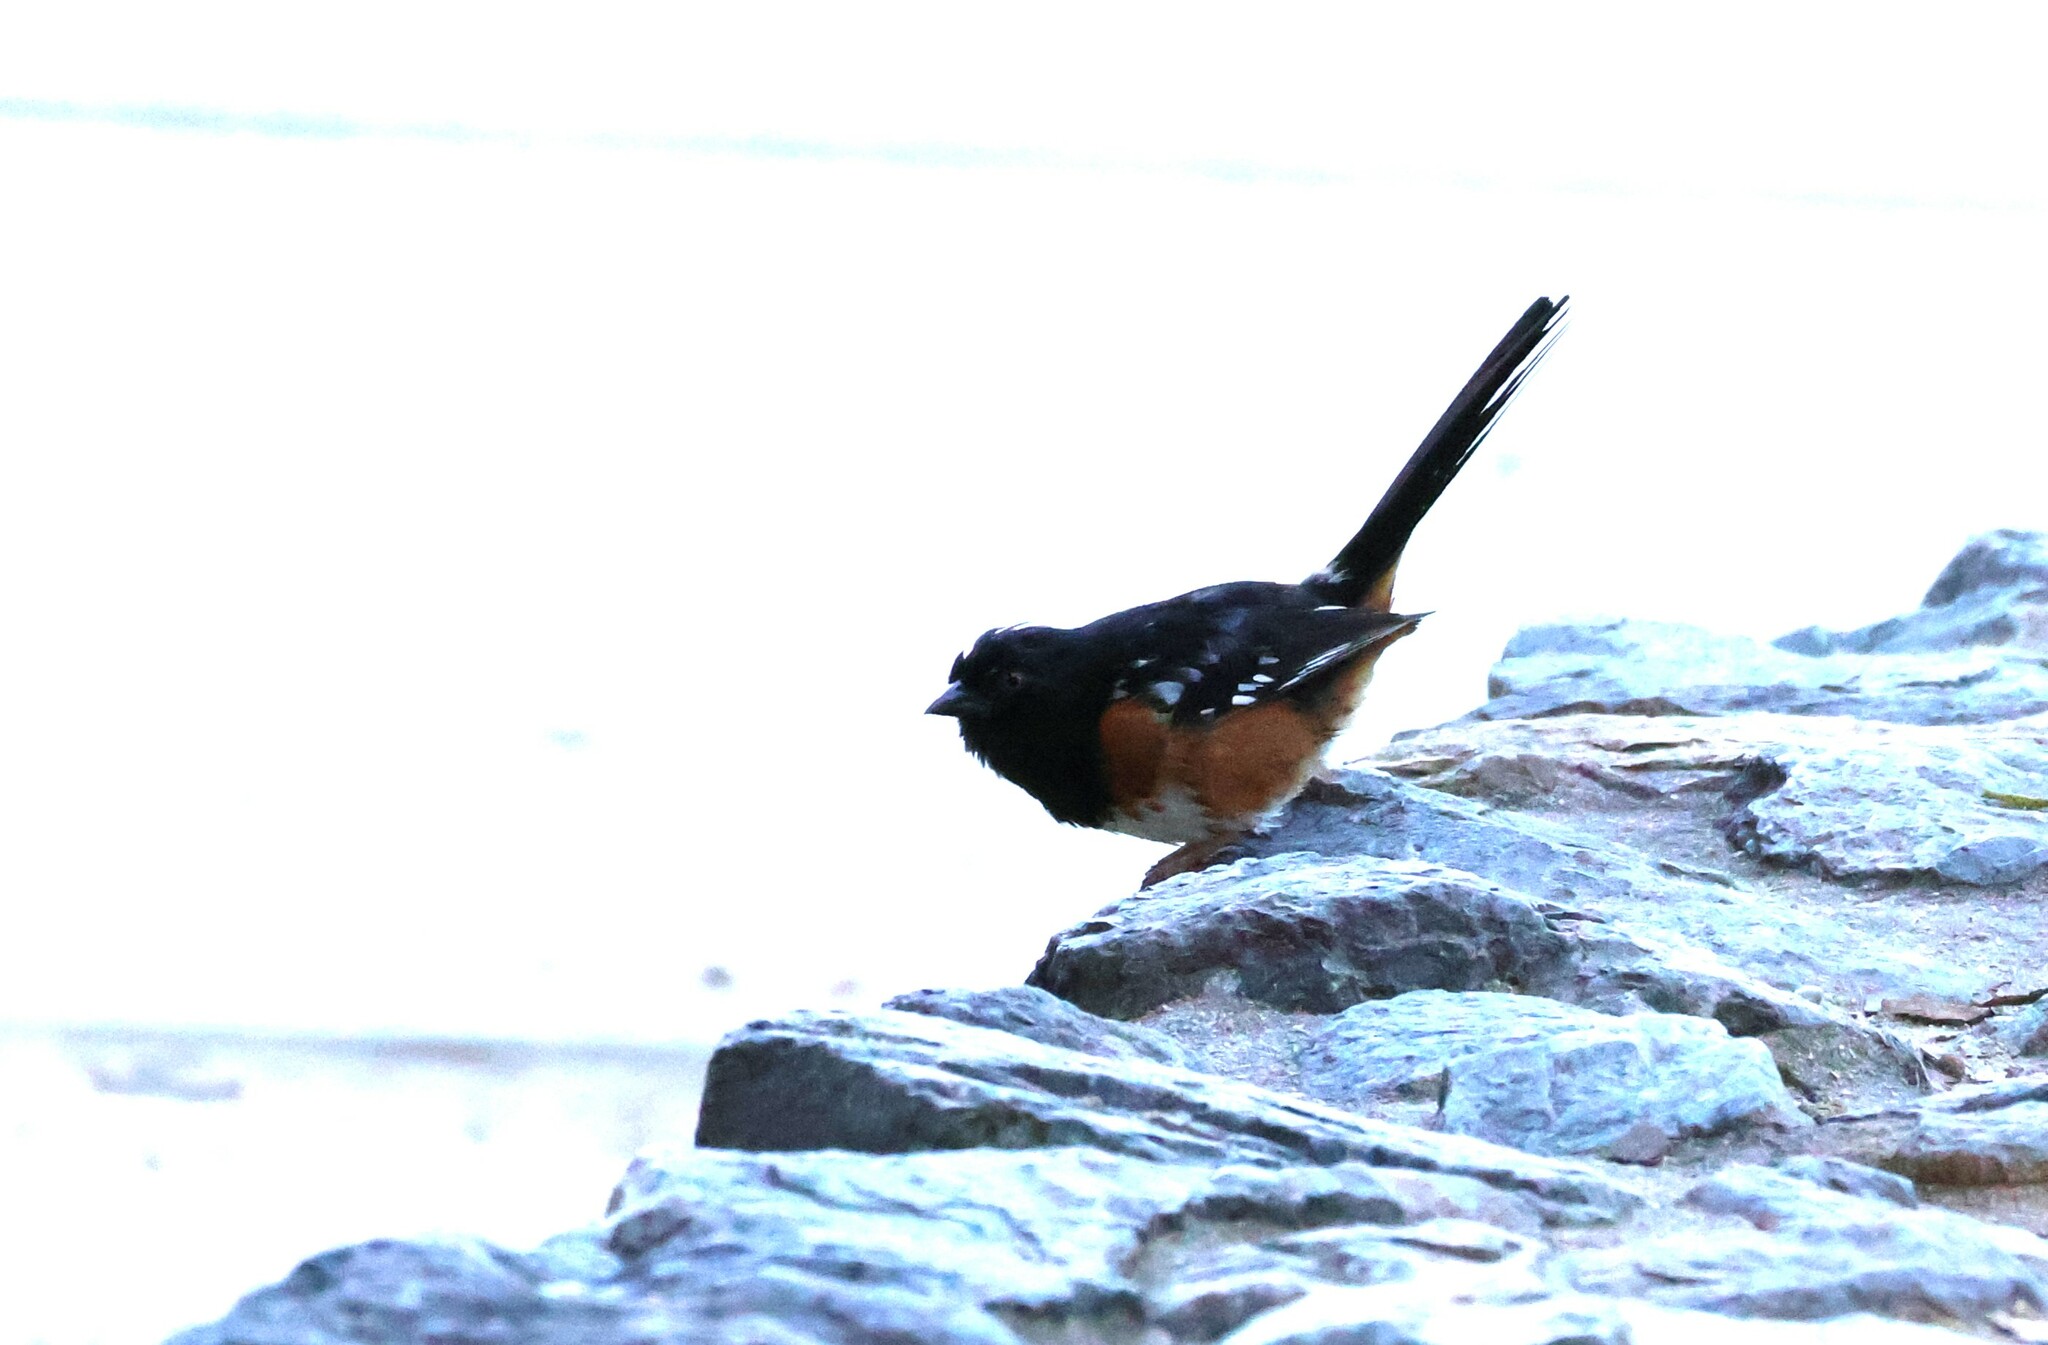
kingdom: Animalia
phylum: Chordata
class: Aves
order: Passeriformes
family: Passerellidae
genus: Pipilo
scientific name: Pipilo maculatus
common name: Spotted towhee
